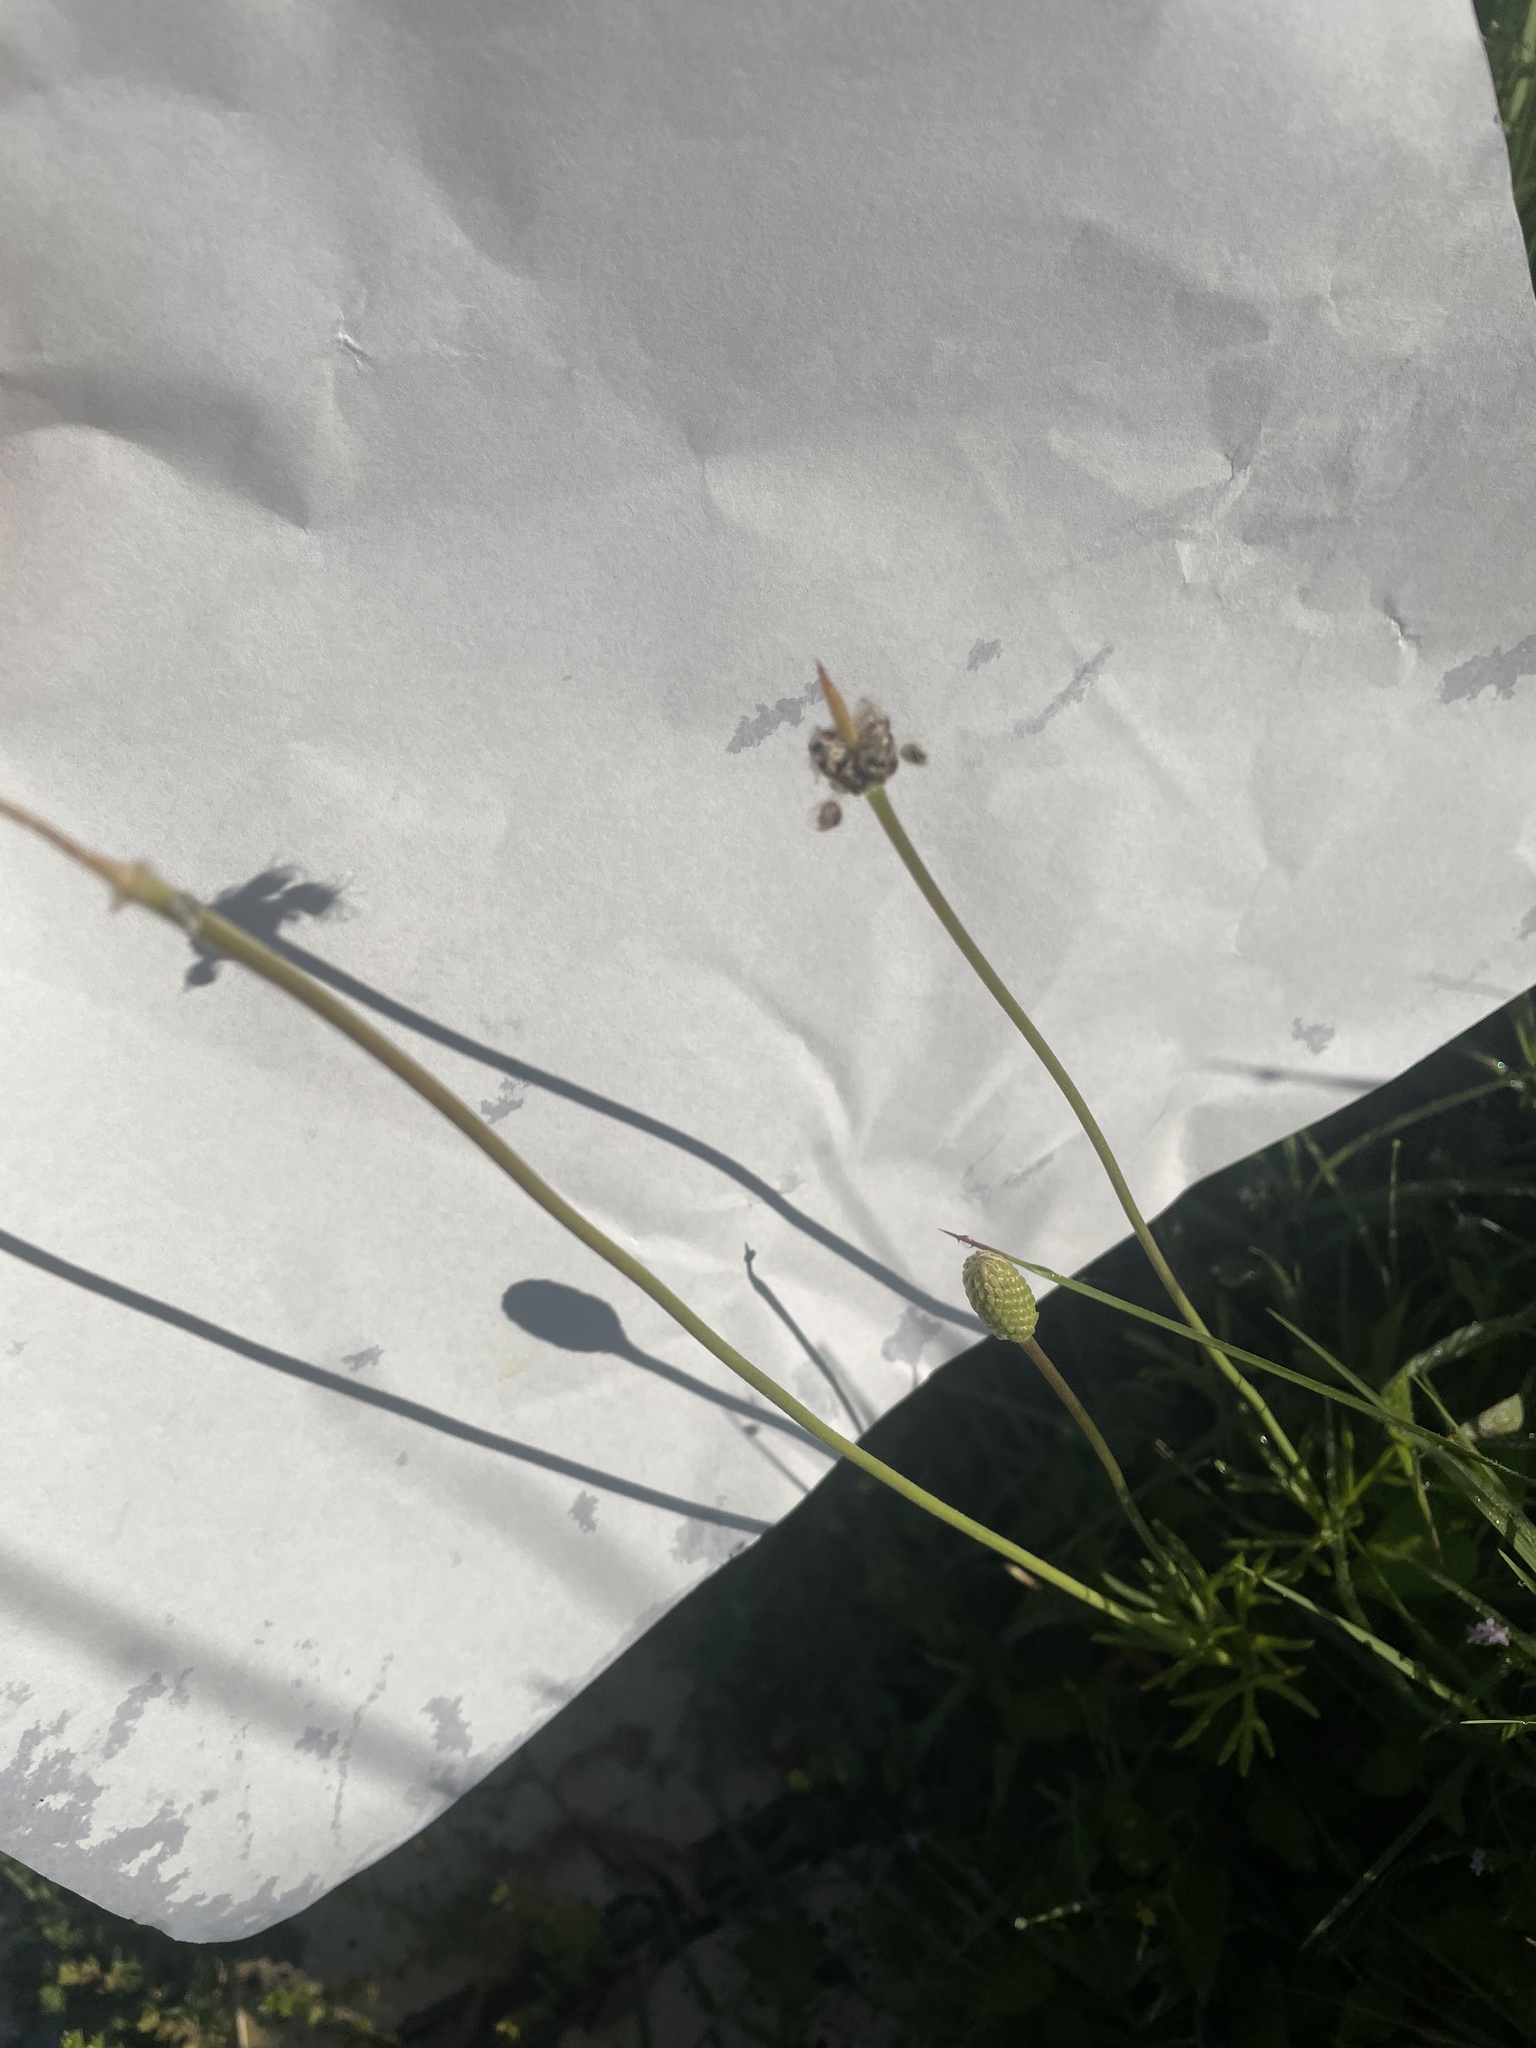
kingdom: Plantae
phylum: Tracheophyta
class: Magnoliopsida
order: Ranunculales
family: Ranunculaceae
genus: Anemone
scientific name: Anemone berlandieri
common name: Ten-petal anemone
